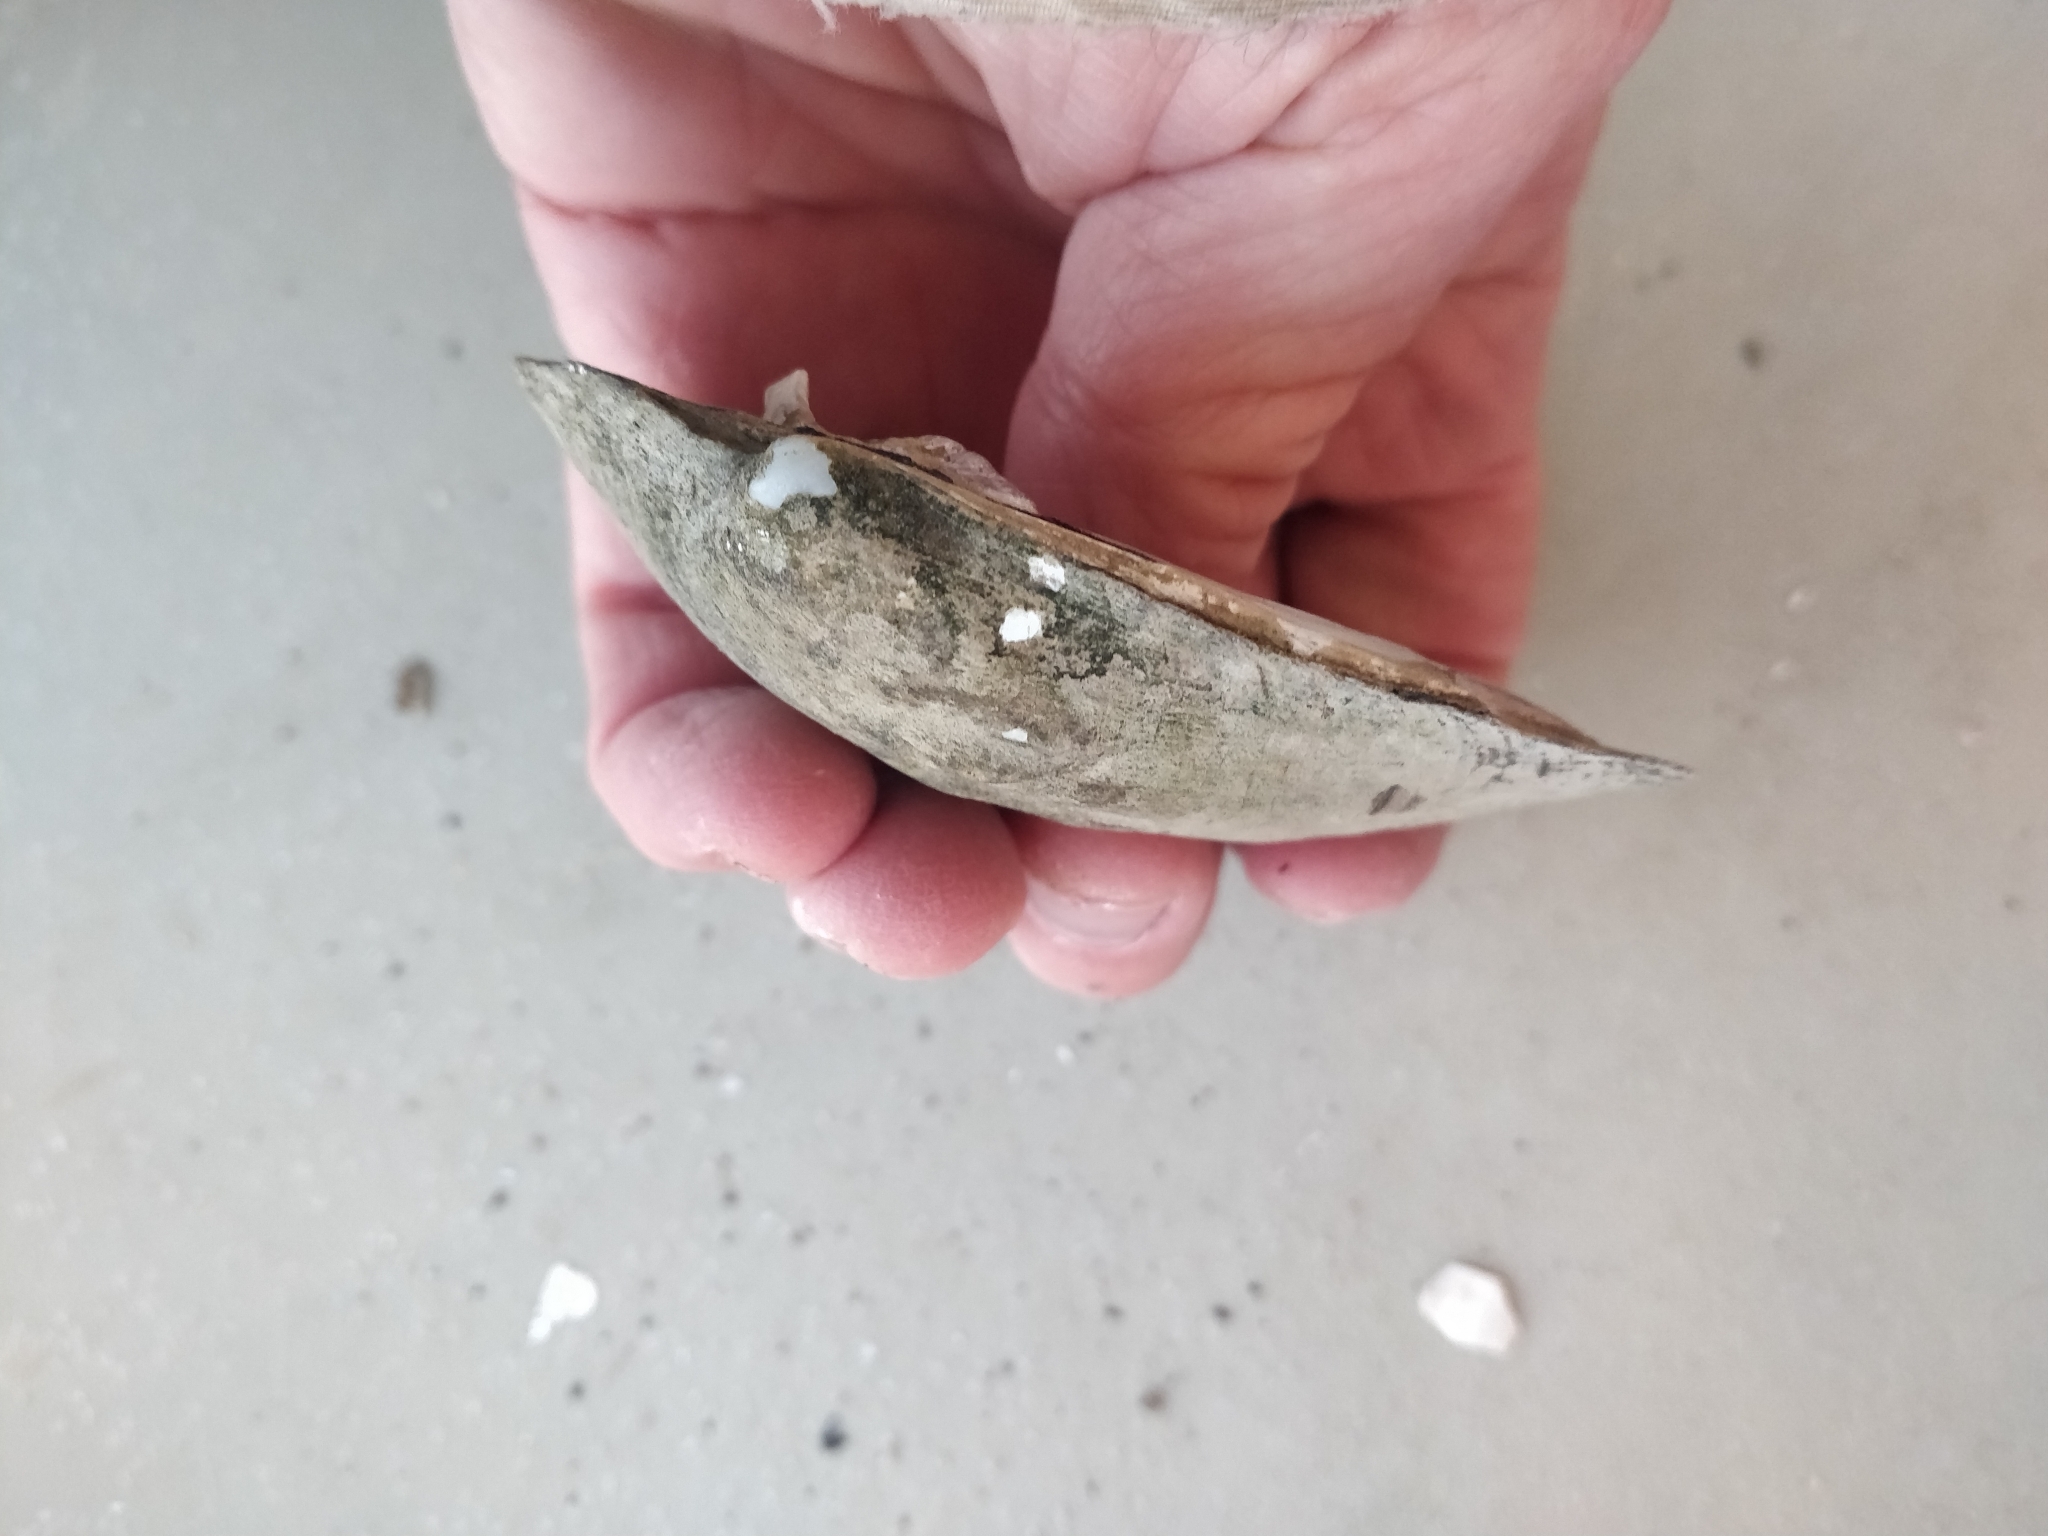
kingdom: Animalia
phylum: Mollusca
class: Bivalvia
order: Unionida
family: Unionidae
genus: Amblema
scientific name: Amblema plicata
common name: Threeridge
